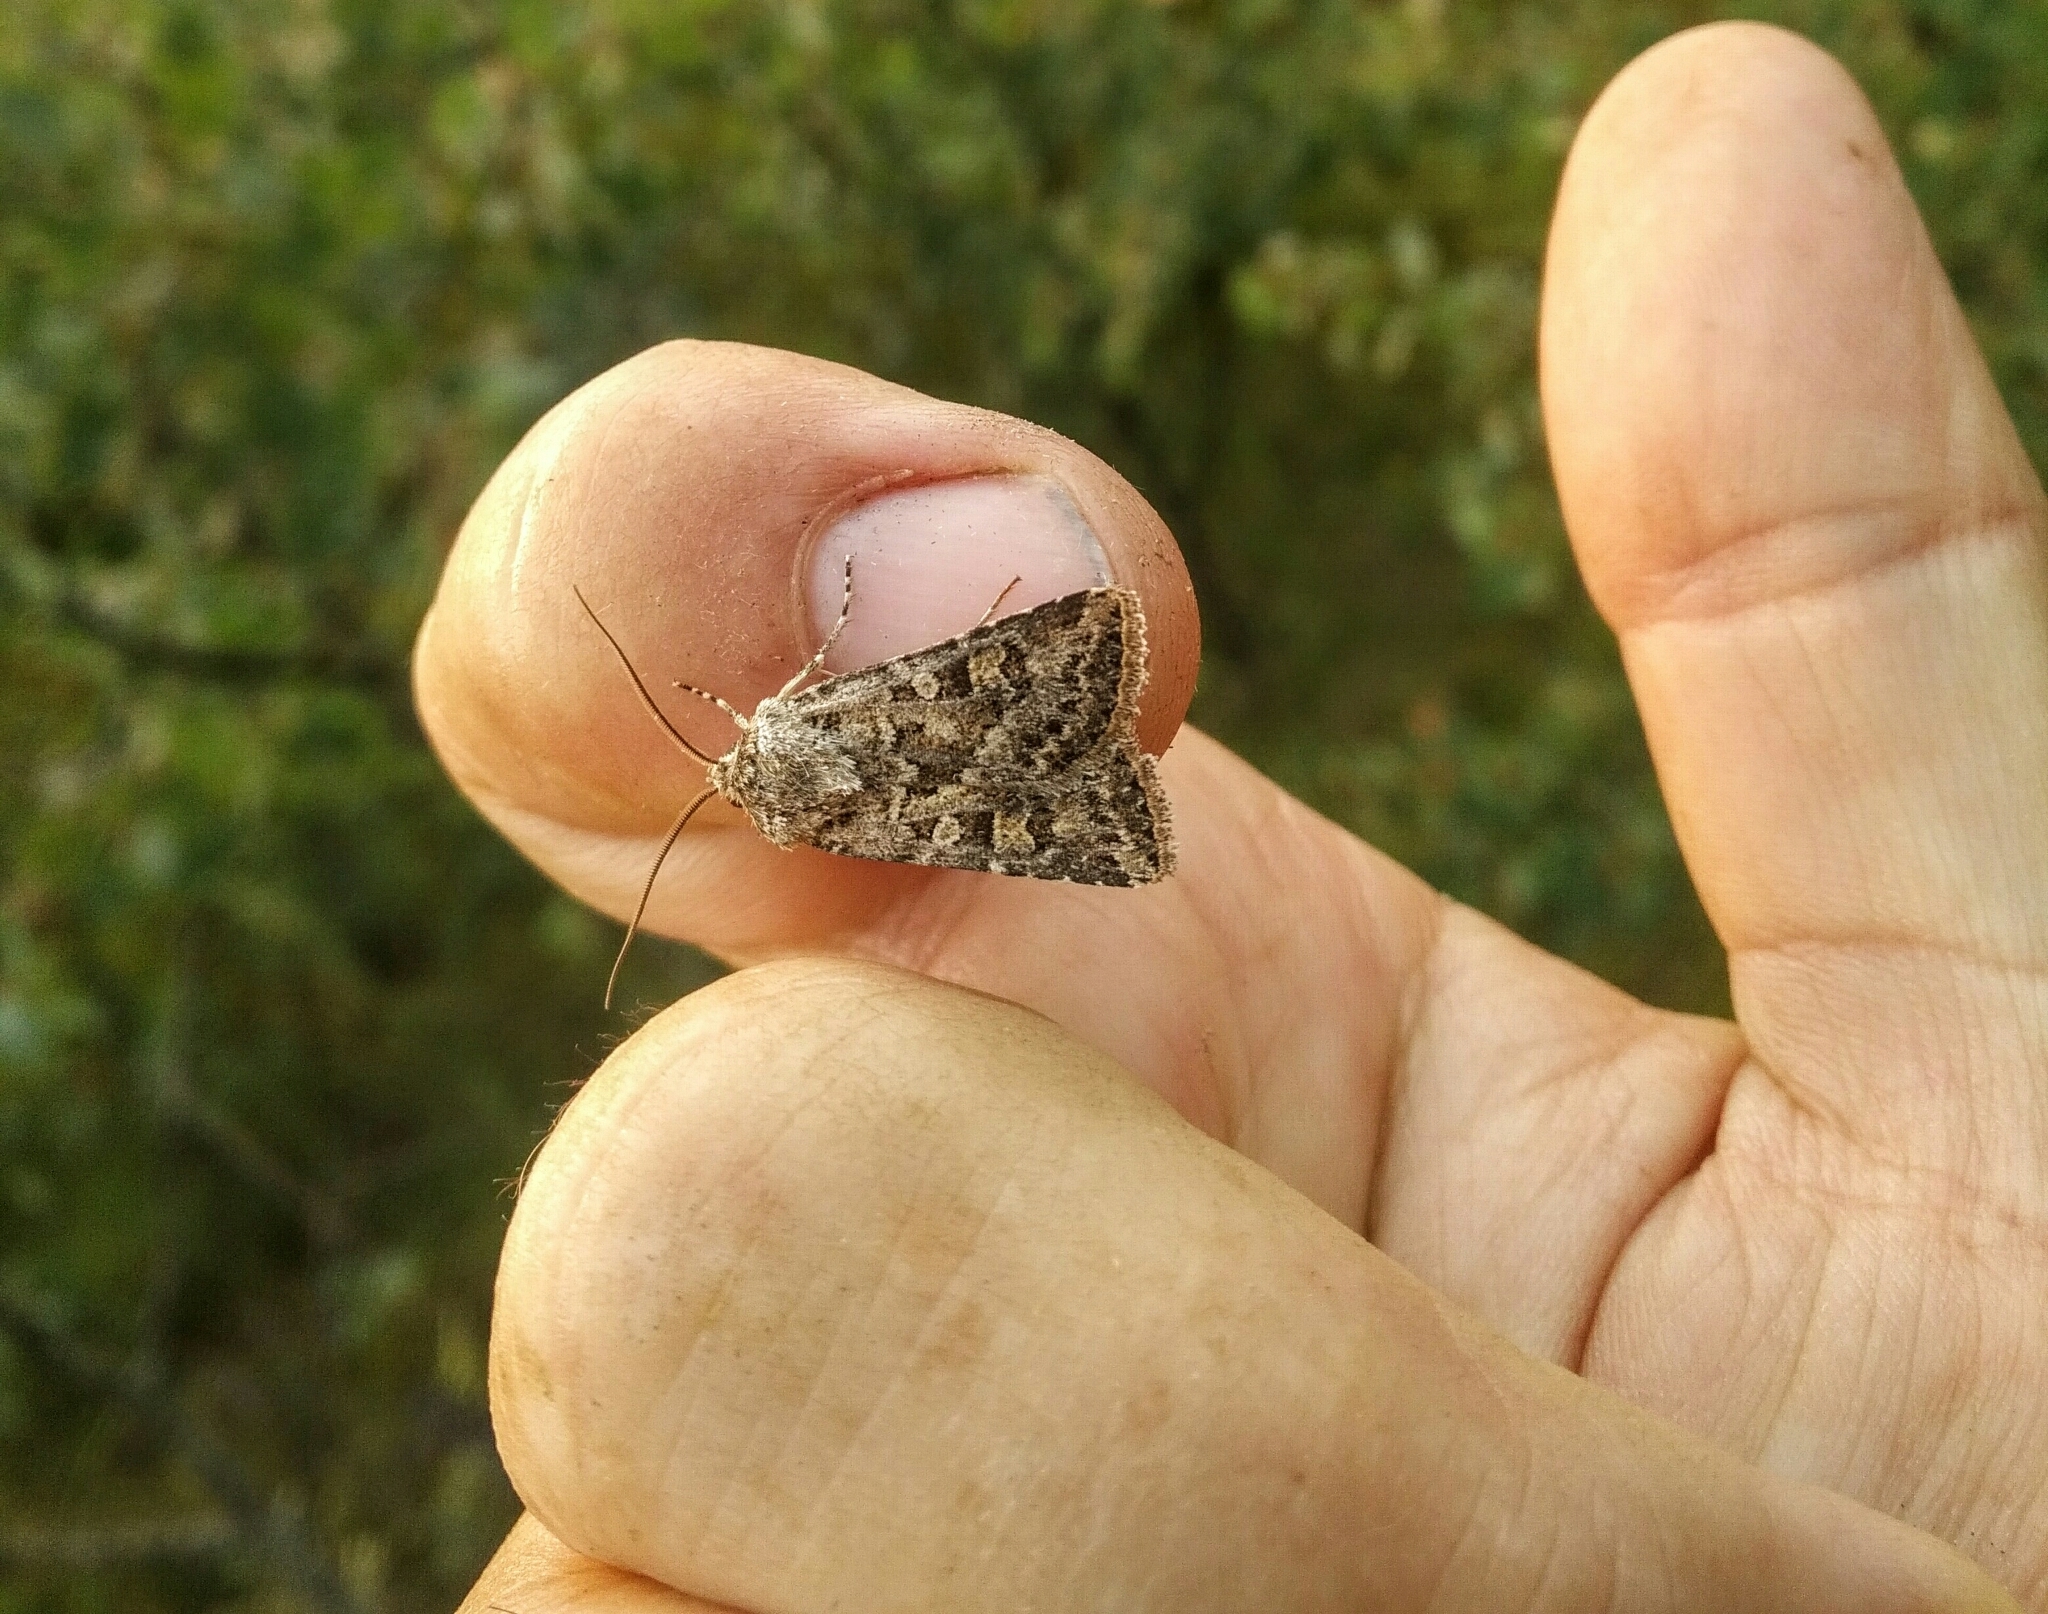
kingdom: Animalia
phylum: Arthropoda
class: Insecta
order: Lepidoptera
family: Noctuidae
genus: Euxoa
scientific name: Euxoa detersa
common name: Rubbed dart
